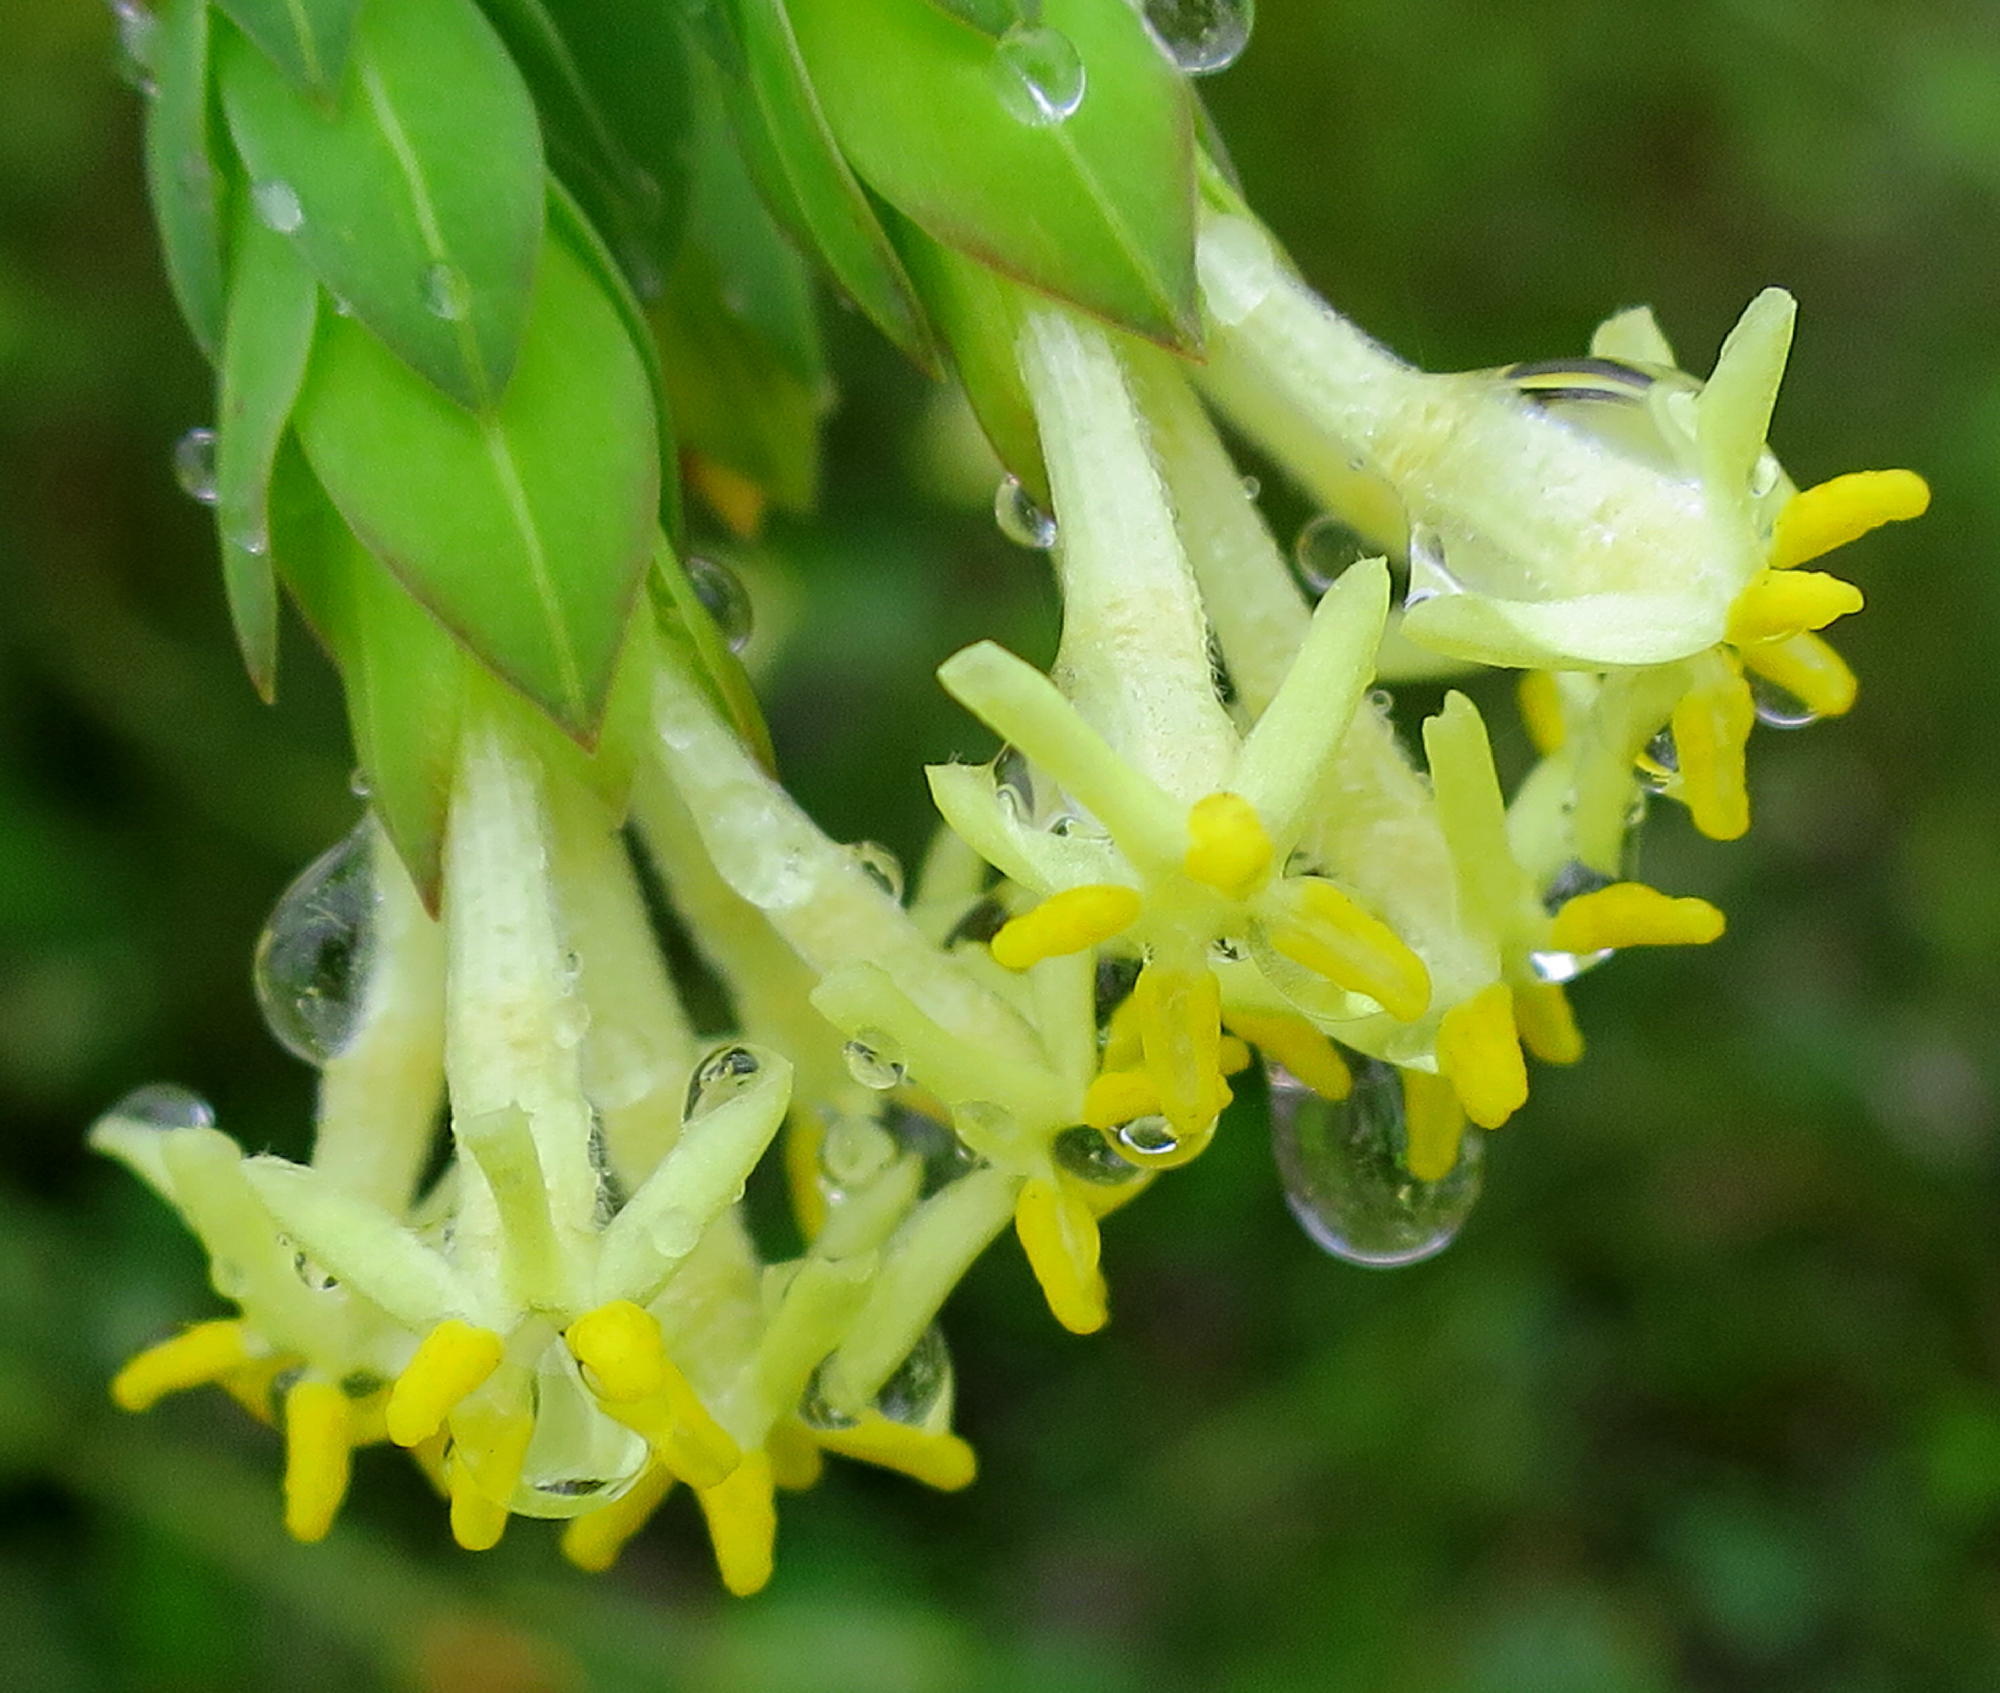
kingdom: Plantae
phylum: Tracheophyta
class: Magnoliopsida
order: Malvales
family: Thymelaeaceae
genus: Gnidia
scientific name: Gnidia oppositifolia
